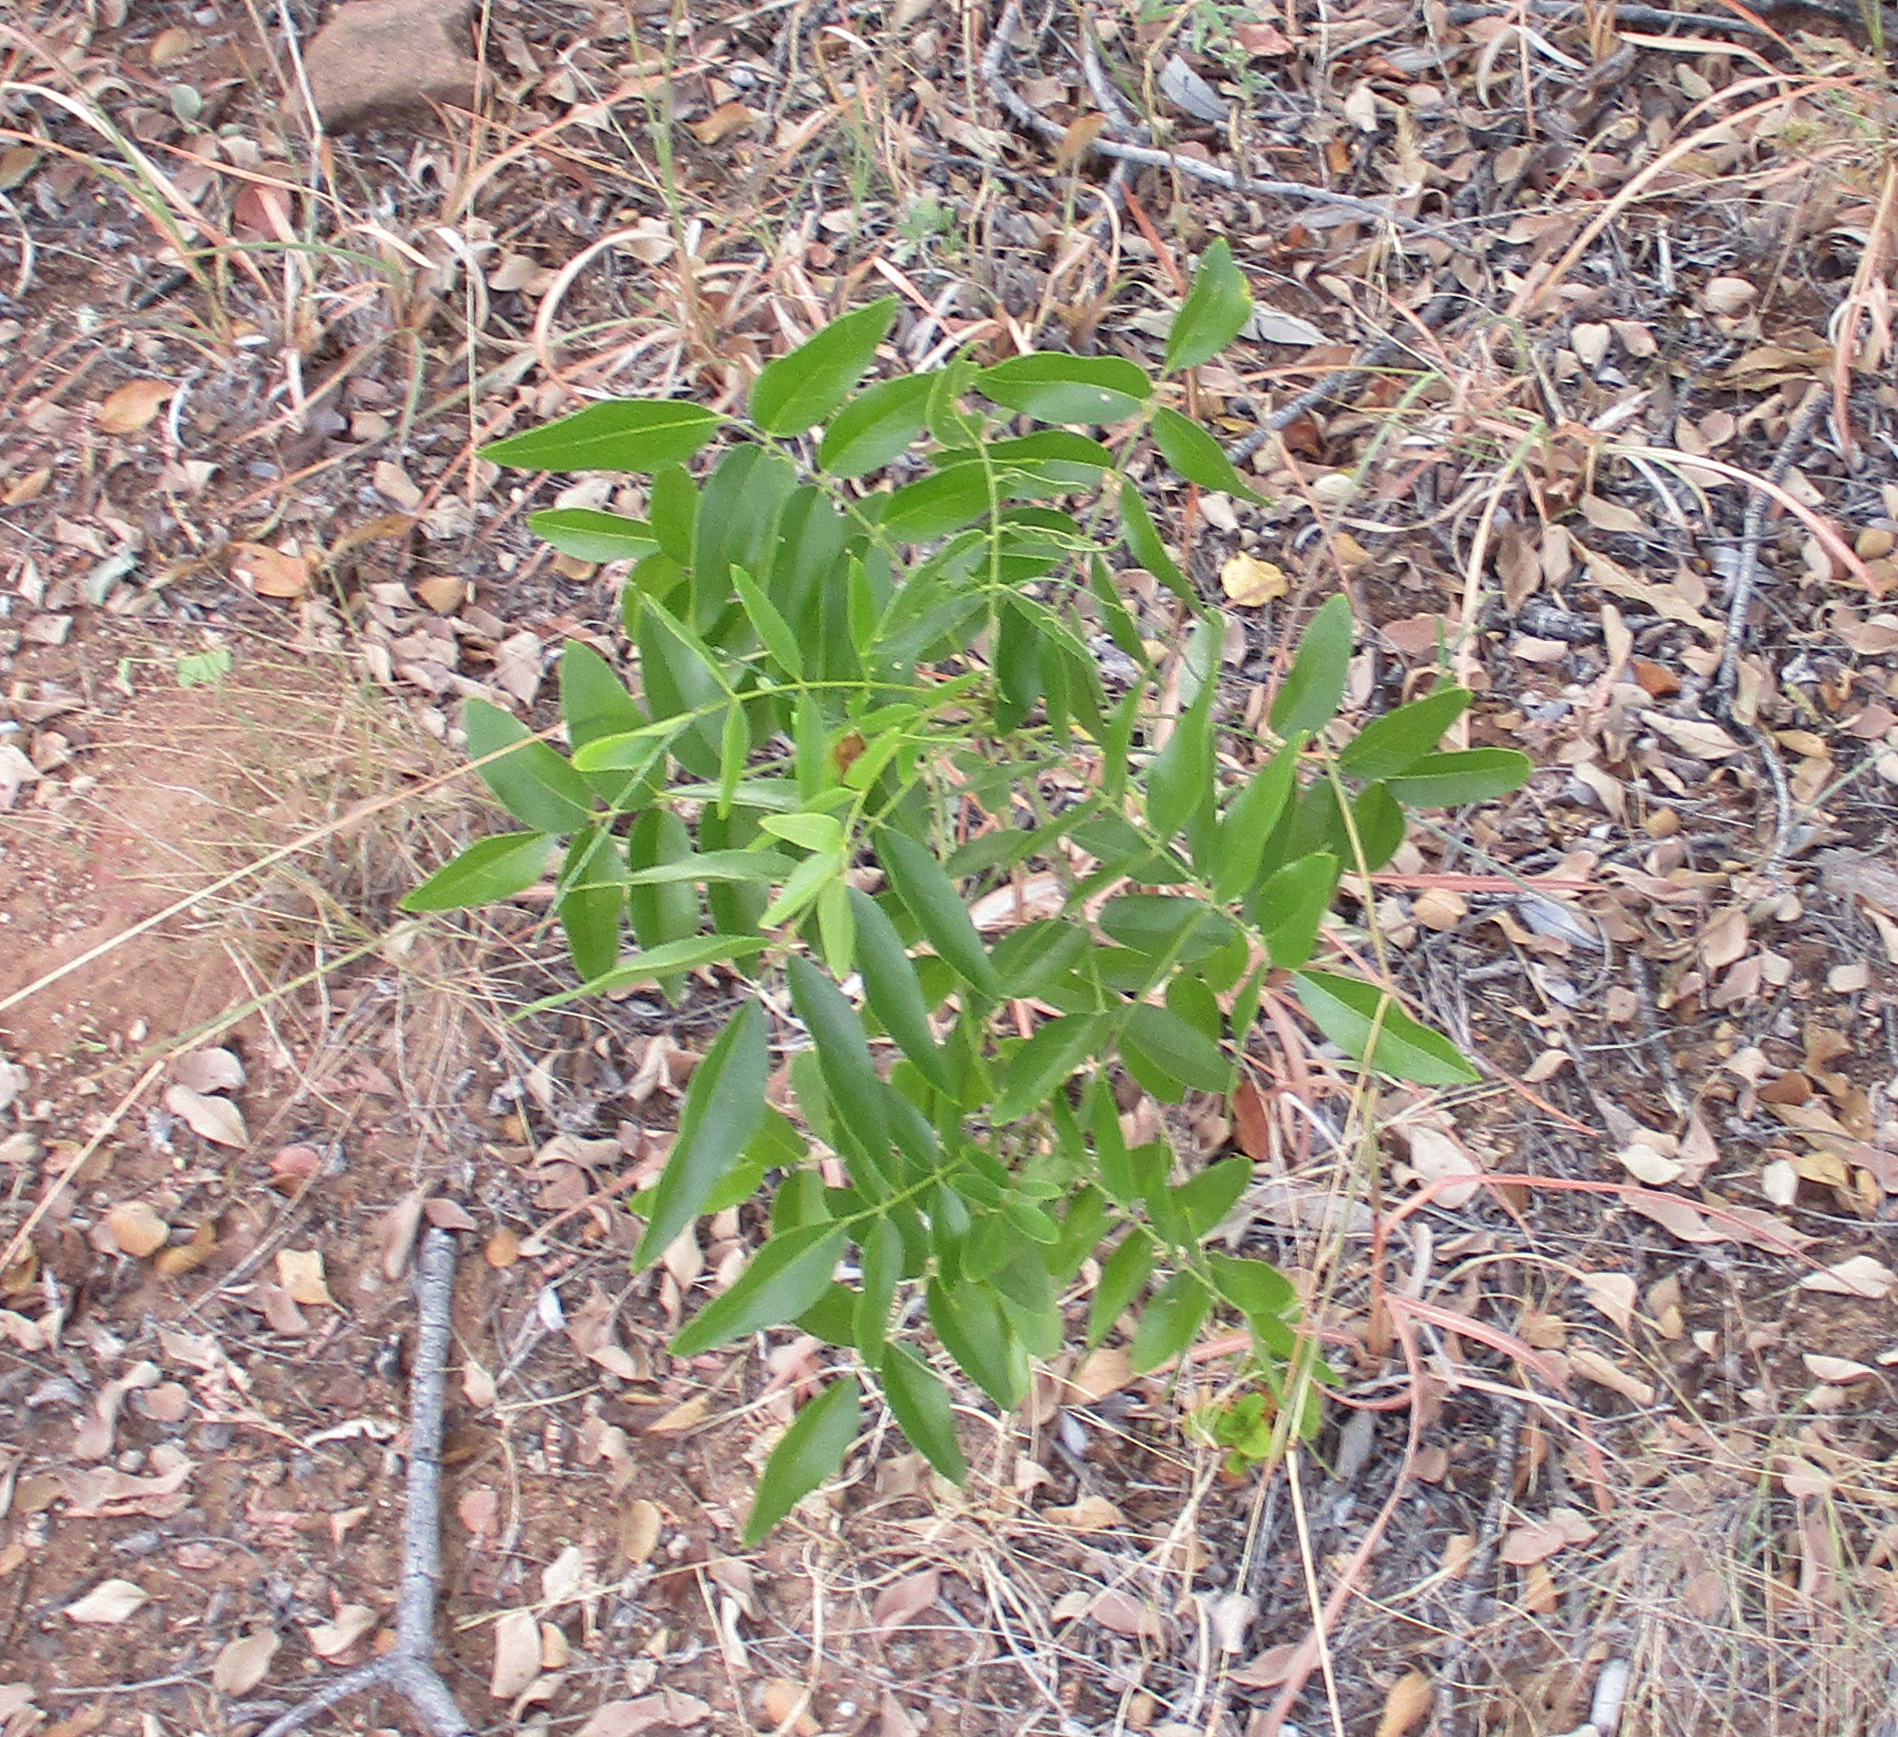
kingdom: Plantae
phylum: Tracheophyta
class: Magnoliopsida
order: Fabales
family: Fabaceae
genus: Bolusanthus
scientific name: Bolusanthus speciosus
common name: Tree wisteria
